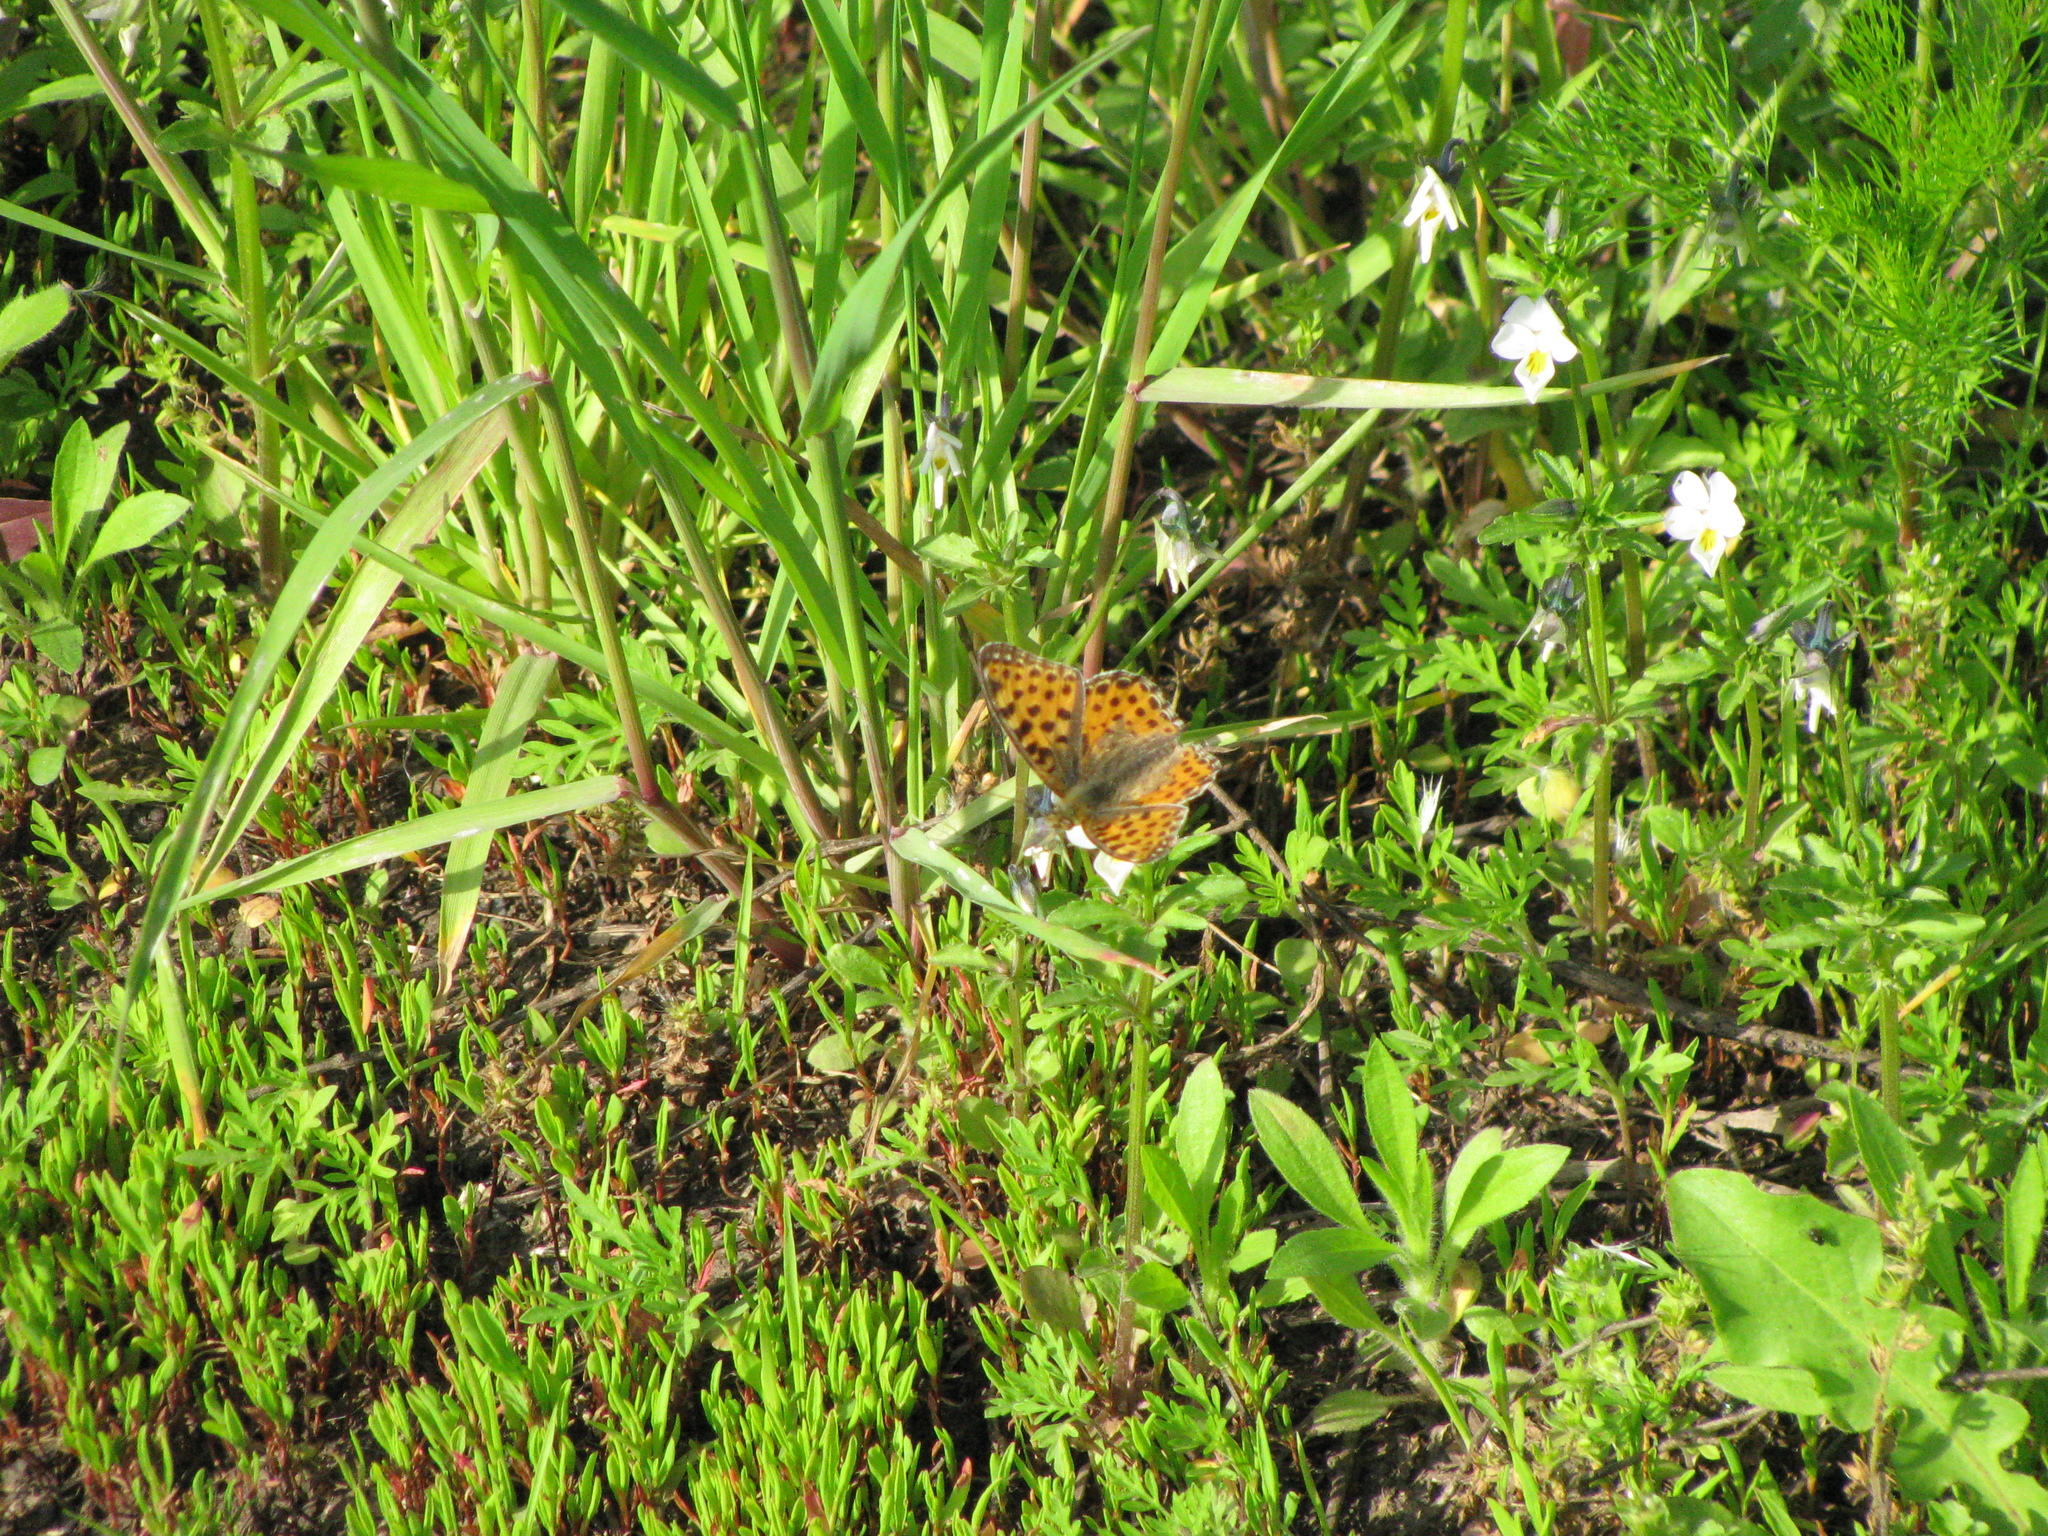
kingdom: Animalia
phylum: Arthropoda
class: Insecta
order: Lepidoptera
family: Nymphalidae
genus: Issoria
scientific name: Issoria lathonia
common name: Queen of spain fritillary
